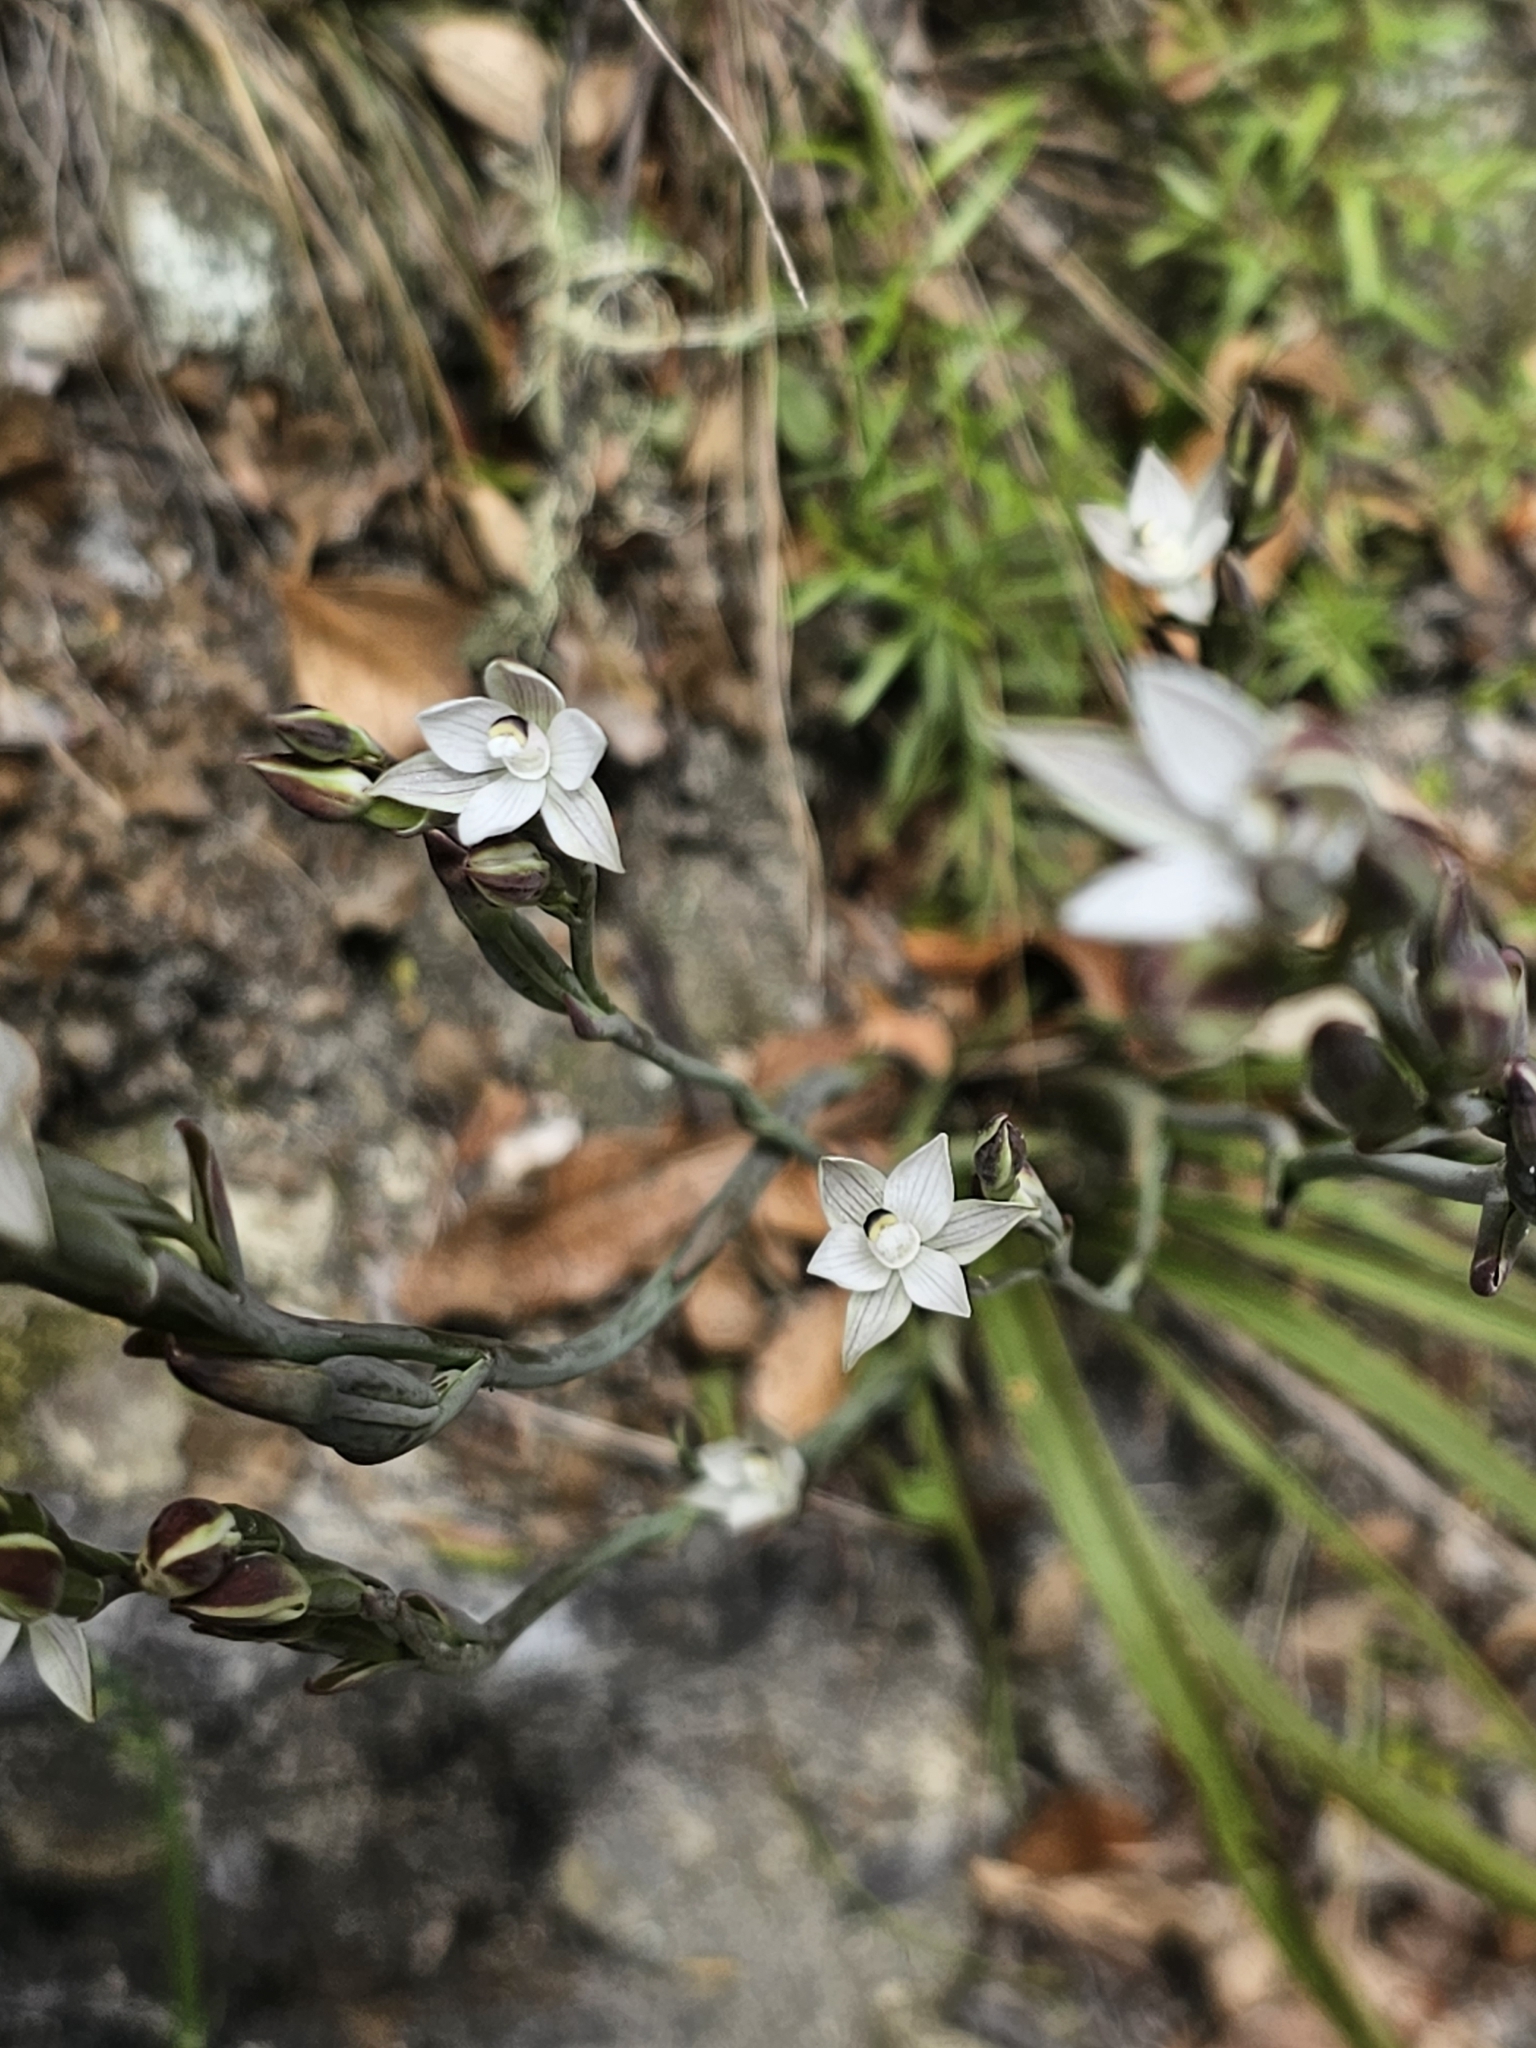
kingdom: Plantae
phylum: Tracheophyta
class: Liliopsida
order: Asparagales
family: Orchidaceae
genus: Thelymitra
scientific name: Thelymitra longifolia
